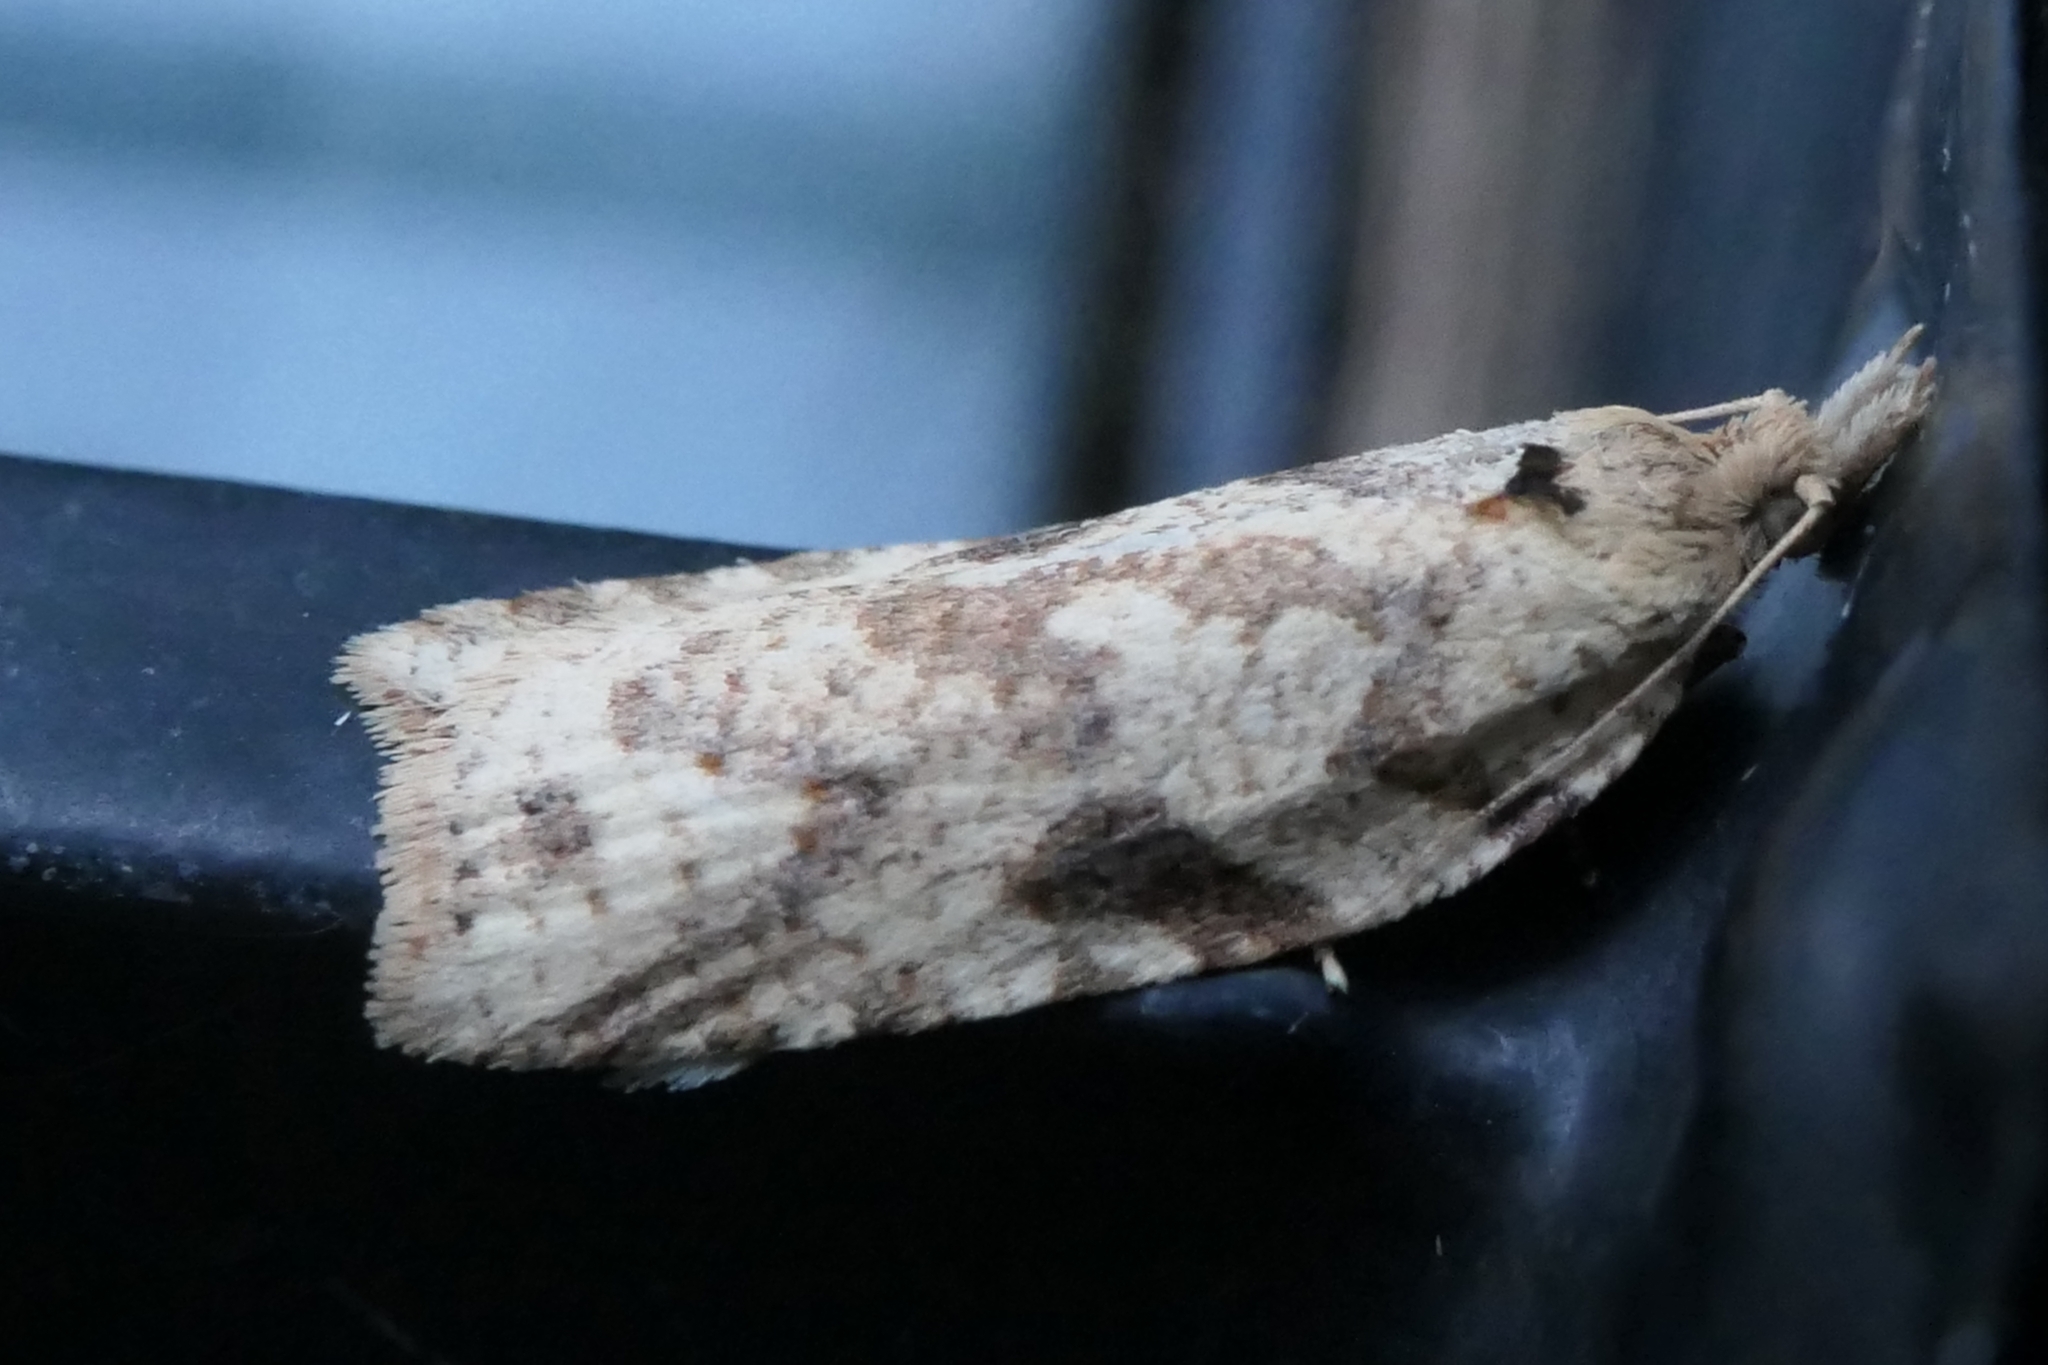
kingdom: Animalia
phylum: Arthropoda
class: Insecta
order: Lepidoptera
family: Tortricidae
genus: Ctenopseustis
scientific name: Ctenopseustis obliquana
